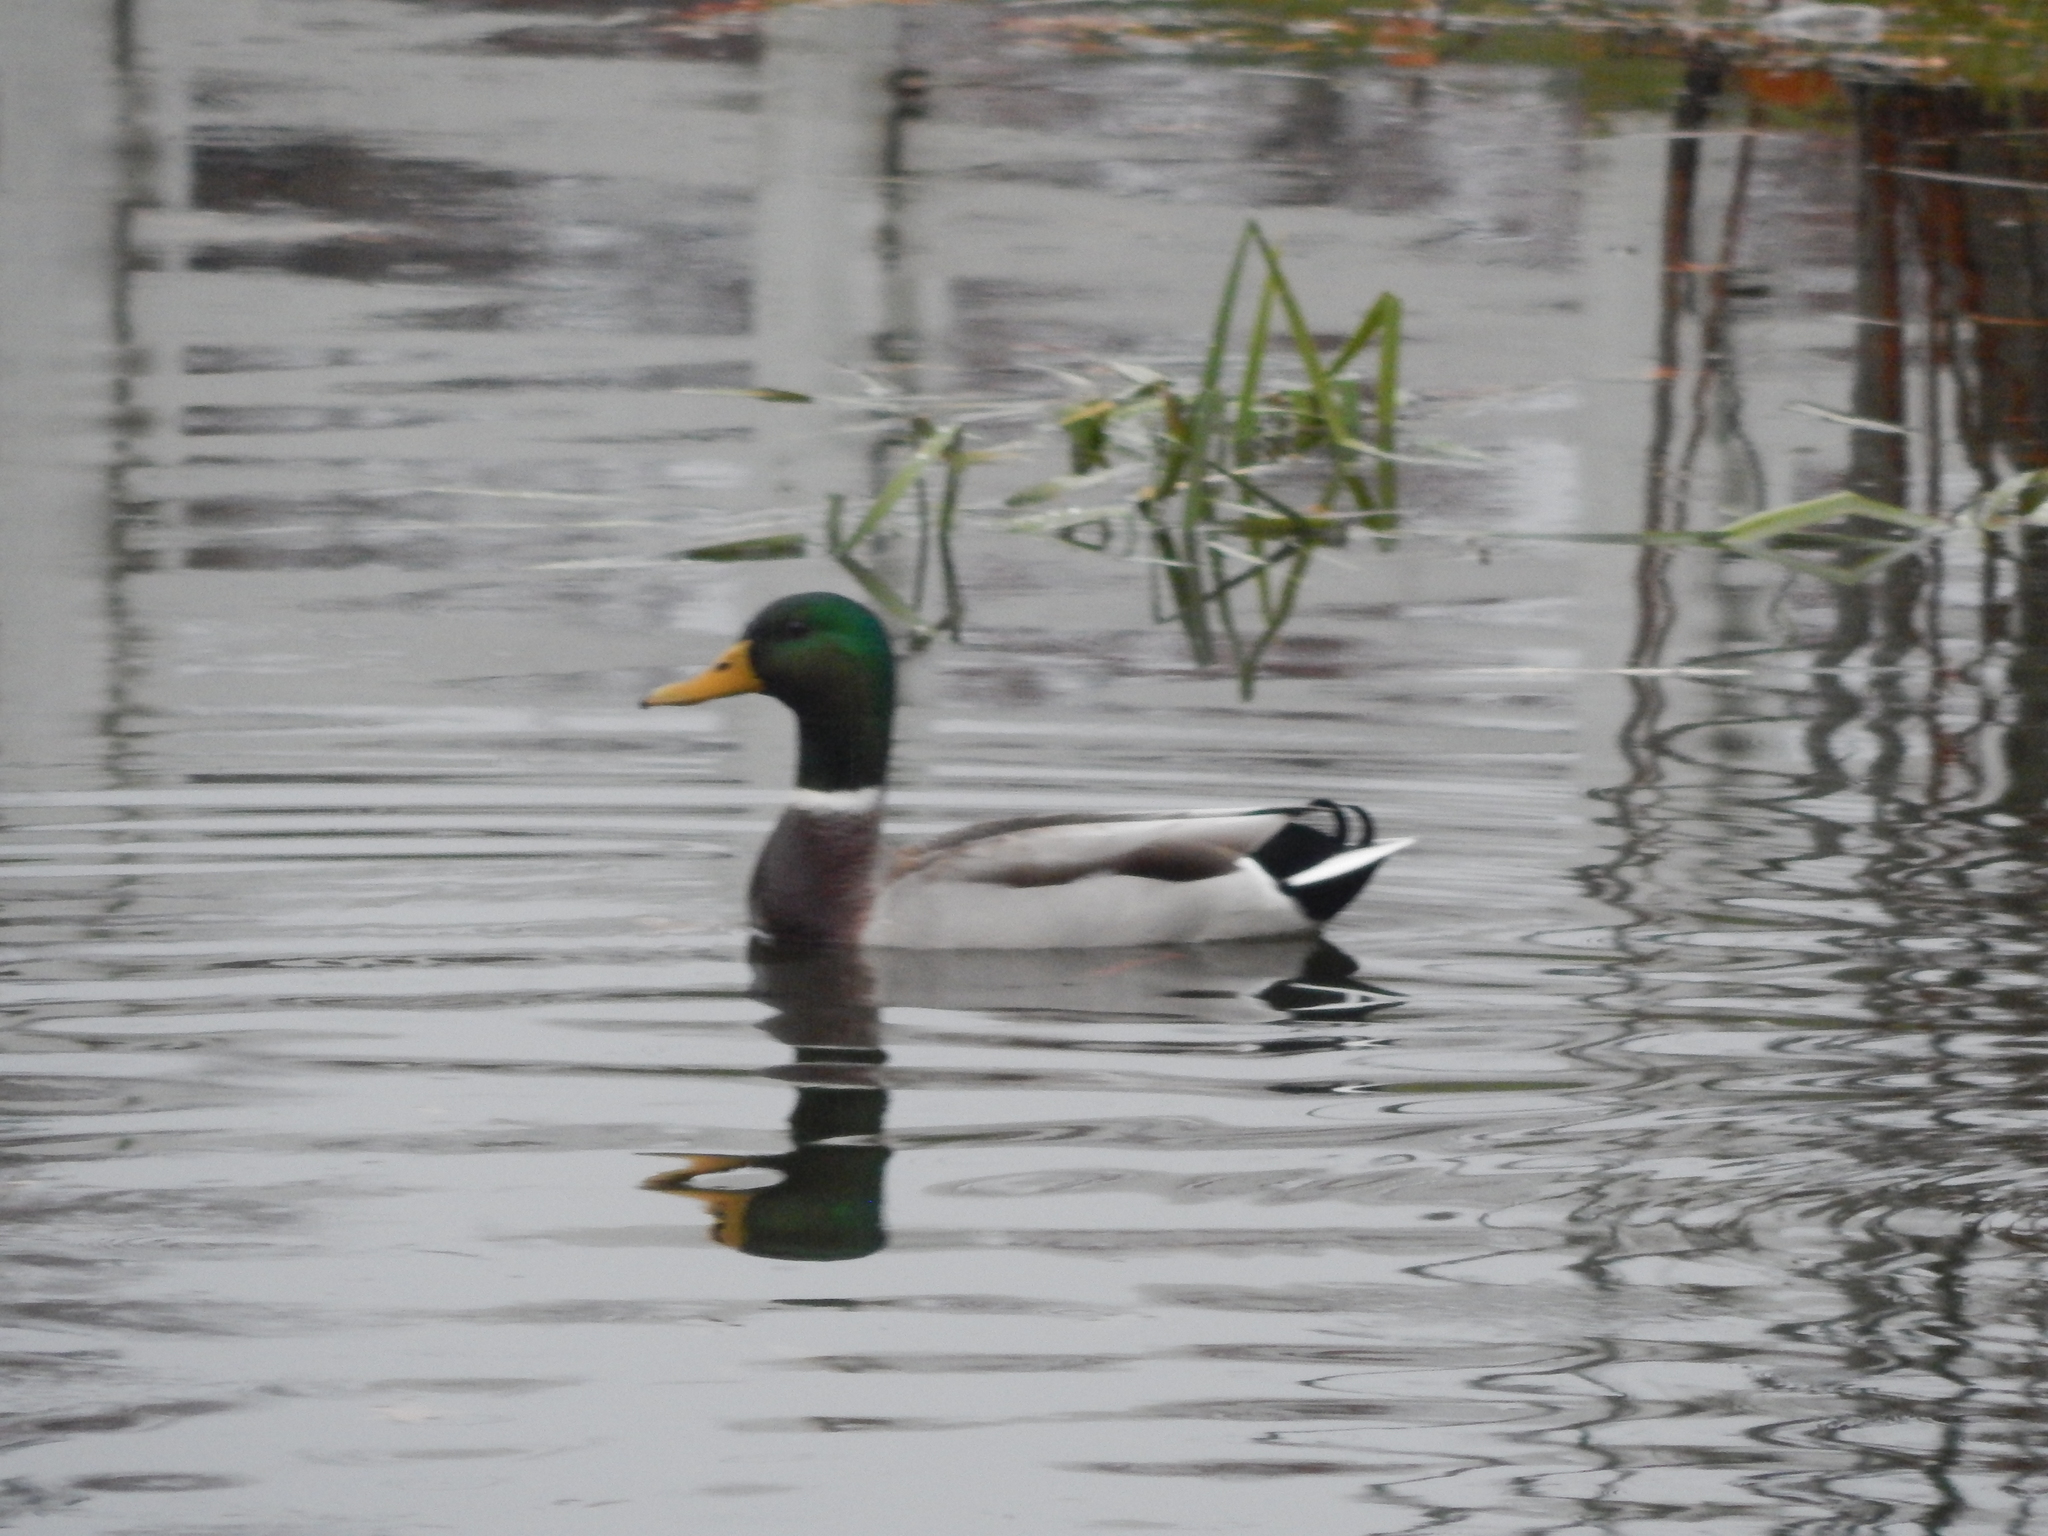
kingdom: Animalia
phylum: Chordata
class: Aves
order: Anseriformes
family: Anatidae
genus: Anas
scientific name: Anas platyrhynchos
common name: Mallard
